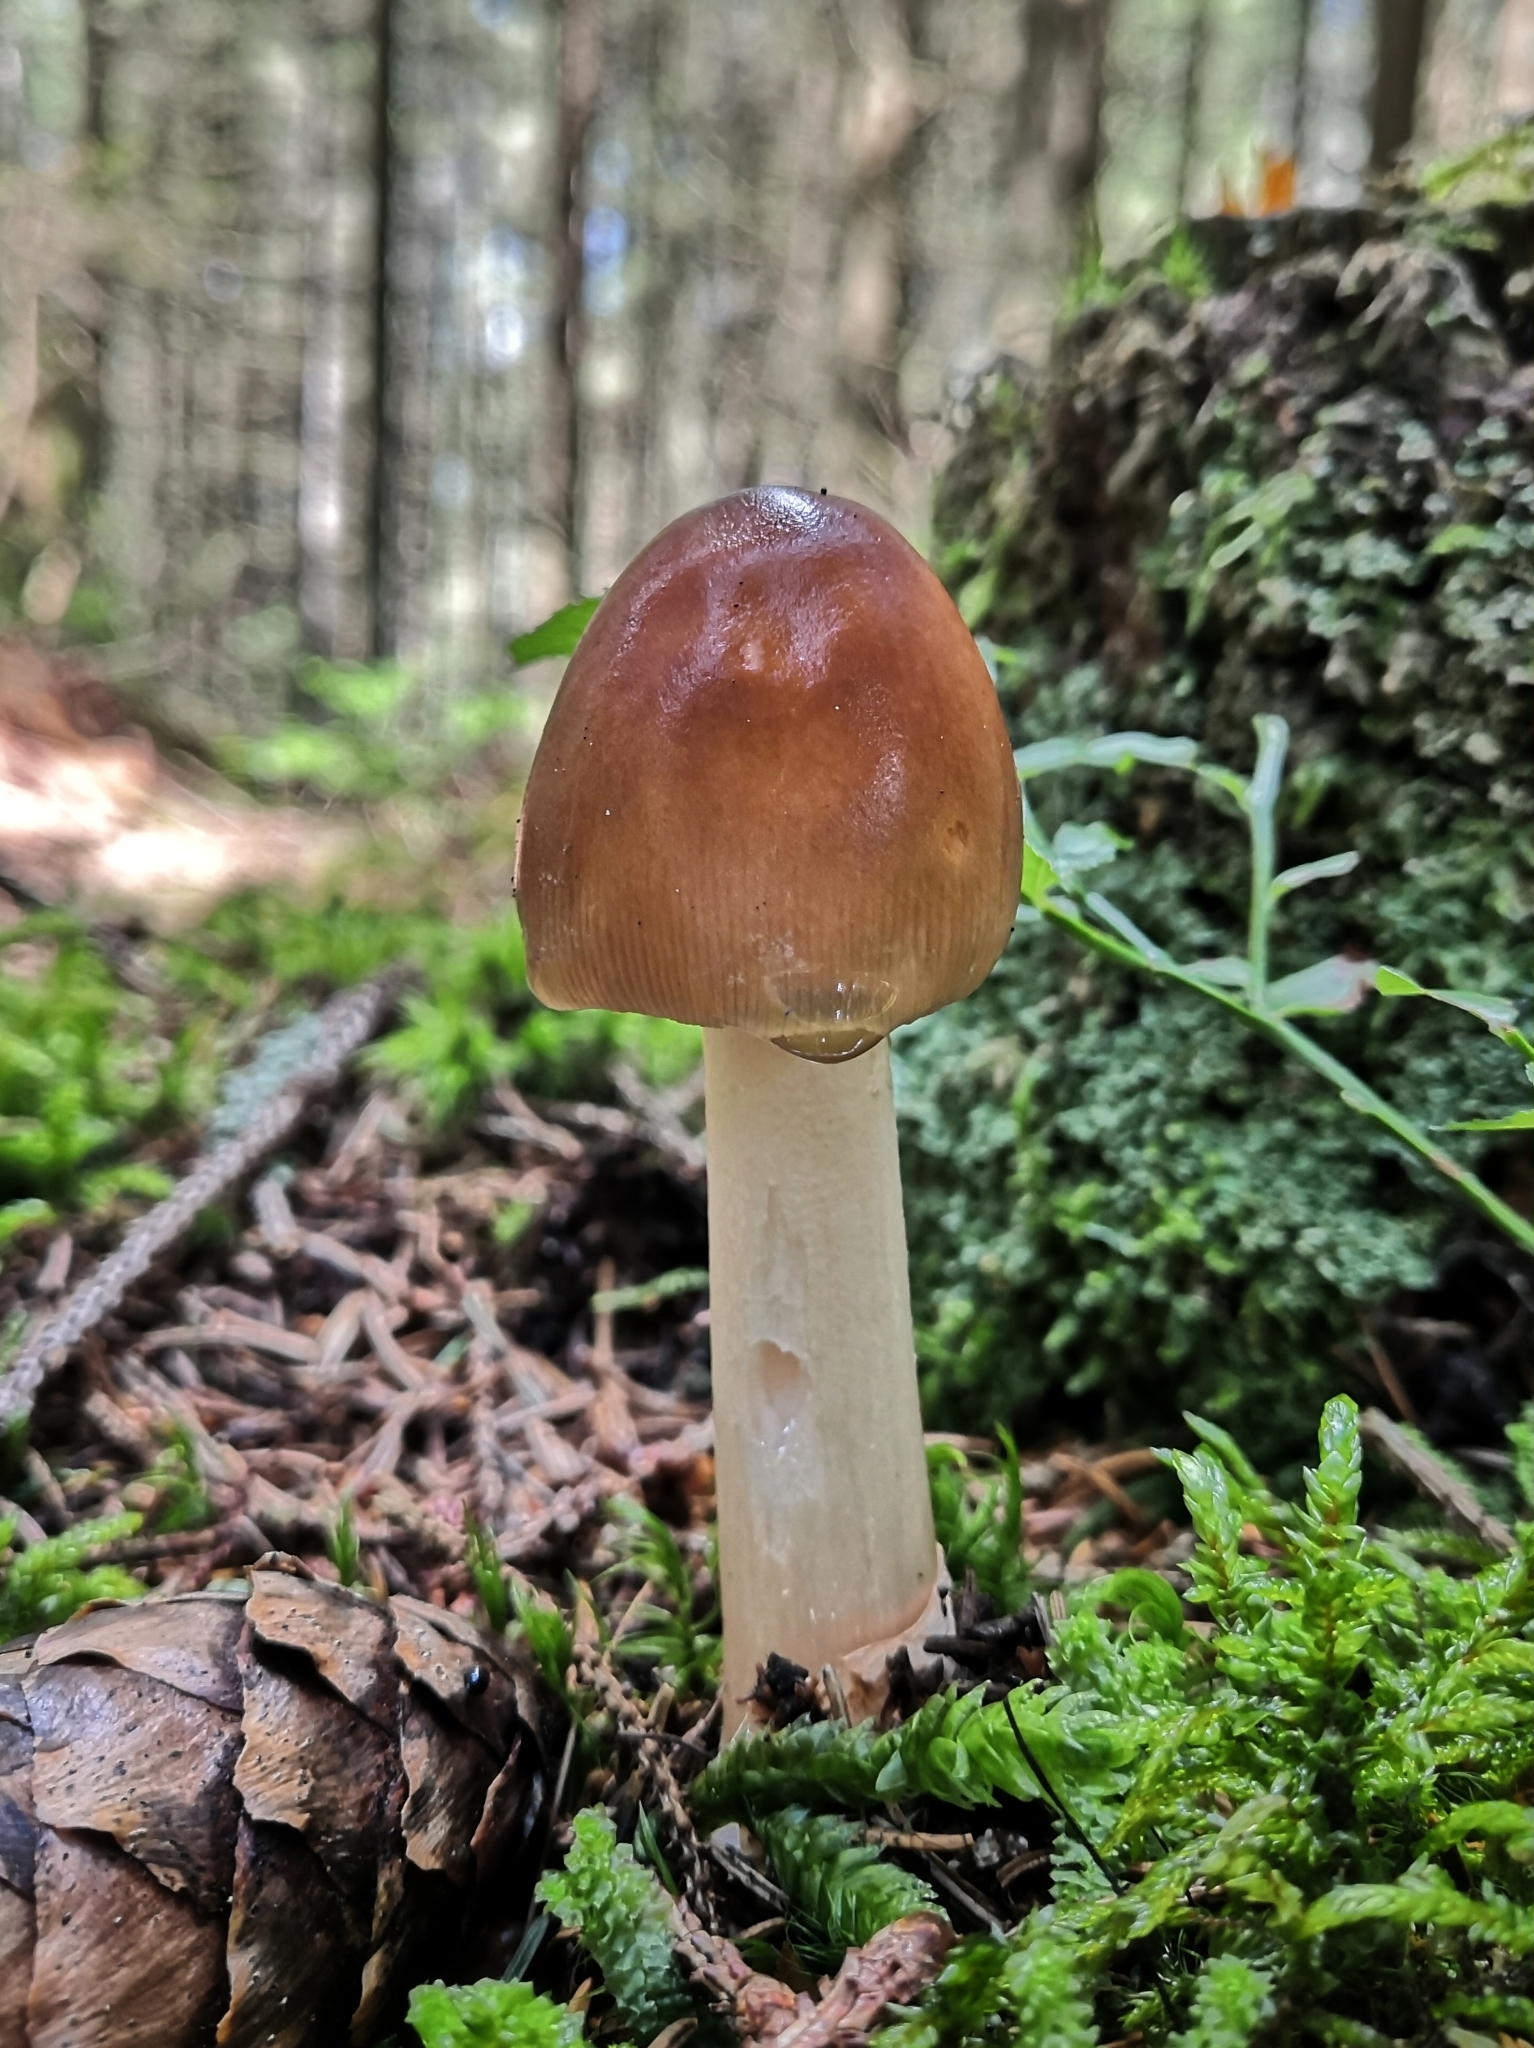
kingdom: Fungi
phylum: Basidiomycota
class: Agaricomycetes
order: Agaricales
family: Amanitaceae
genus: Amanita
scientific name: Amanita fulva
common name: Tawny grisette
